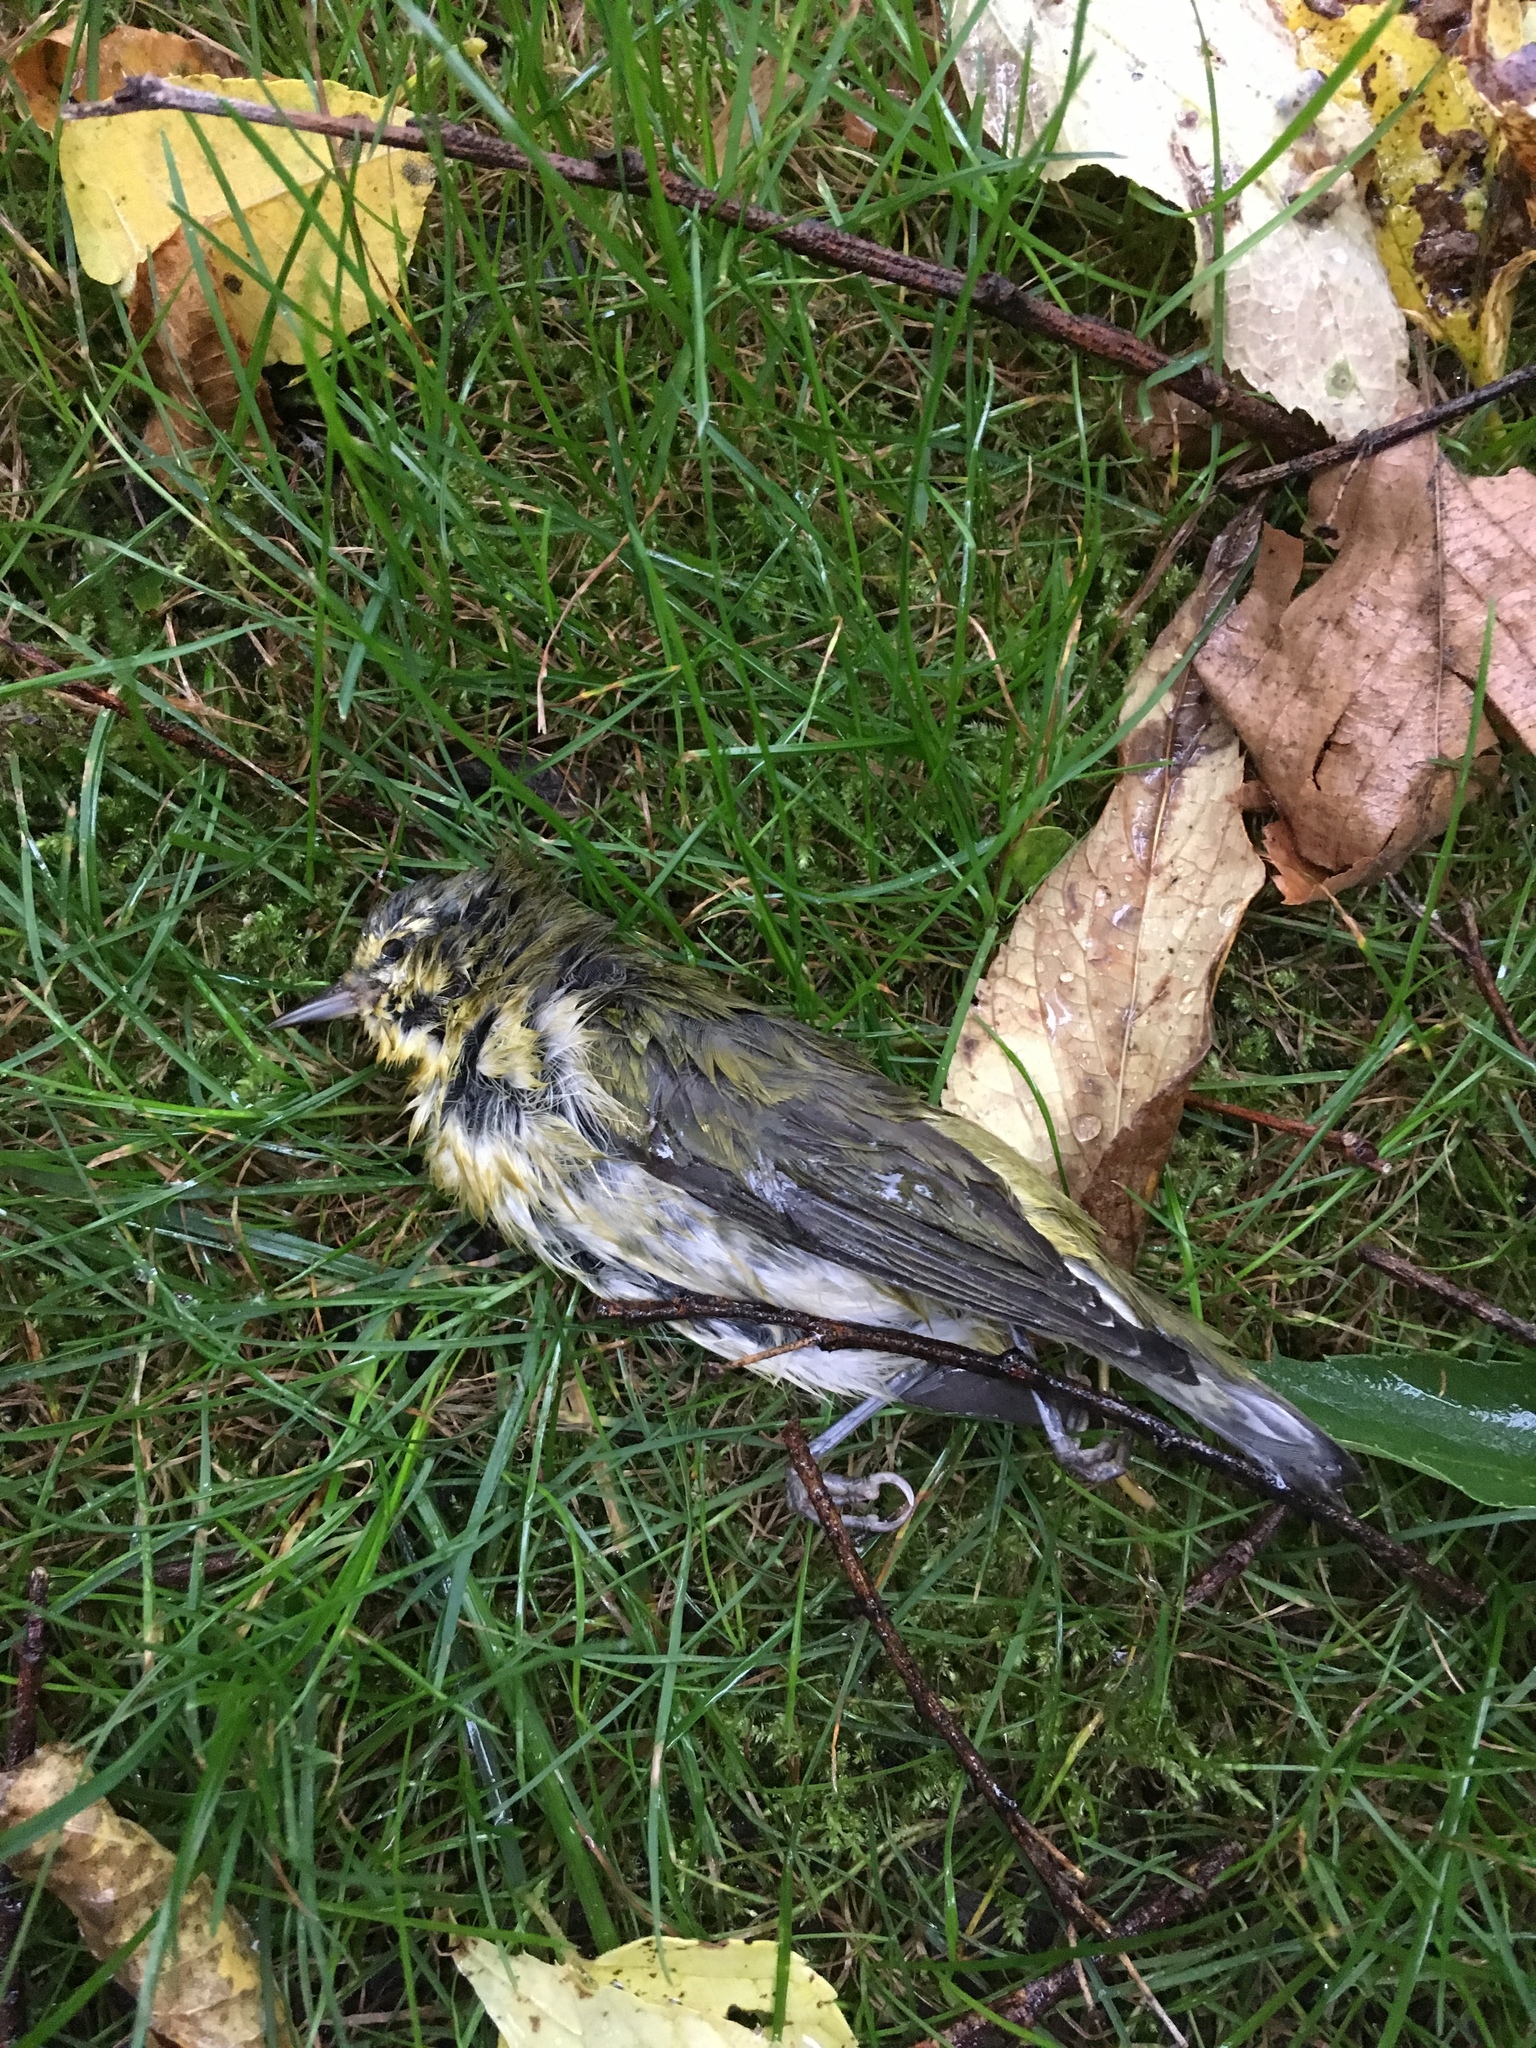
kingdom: Animalia
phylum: Chordata
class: Aves
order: Passeriformes
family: Parulidae
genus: Leiothlypis
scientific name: Leiothlypis peregrina
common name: Tennessee warbler
